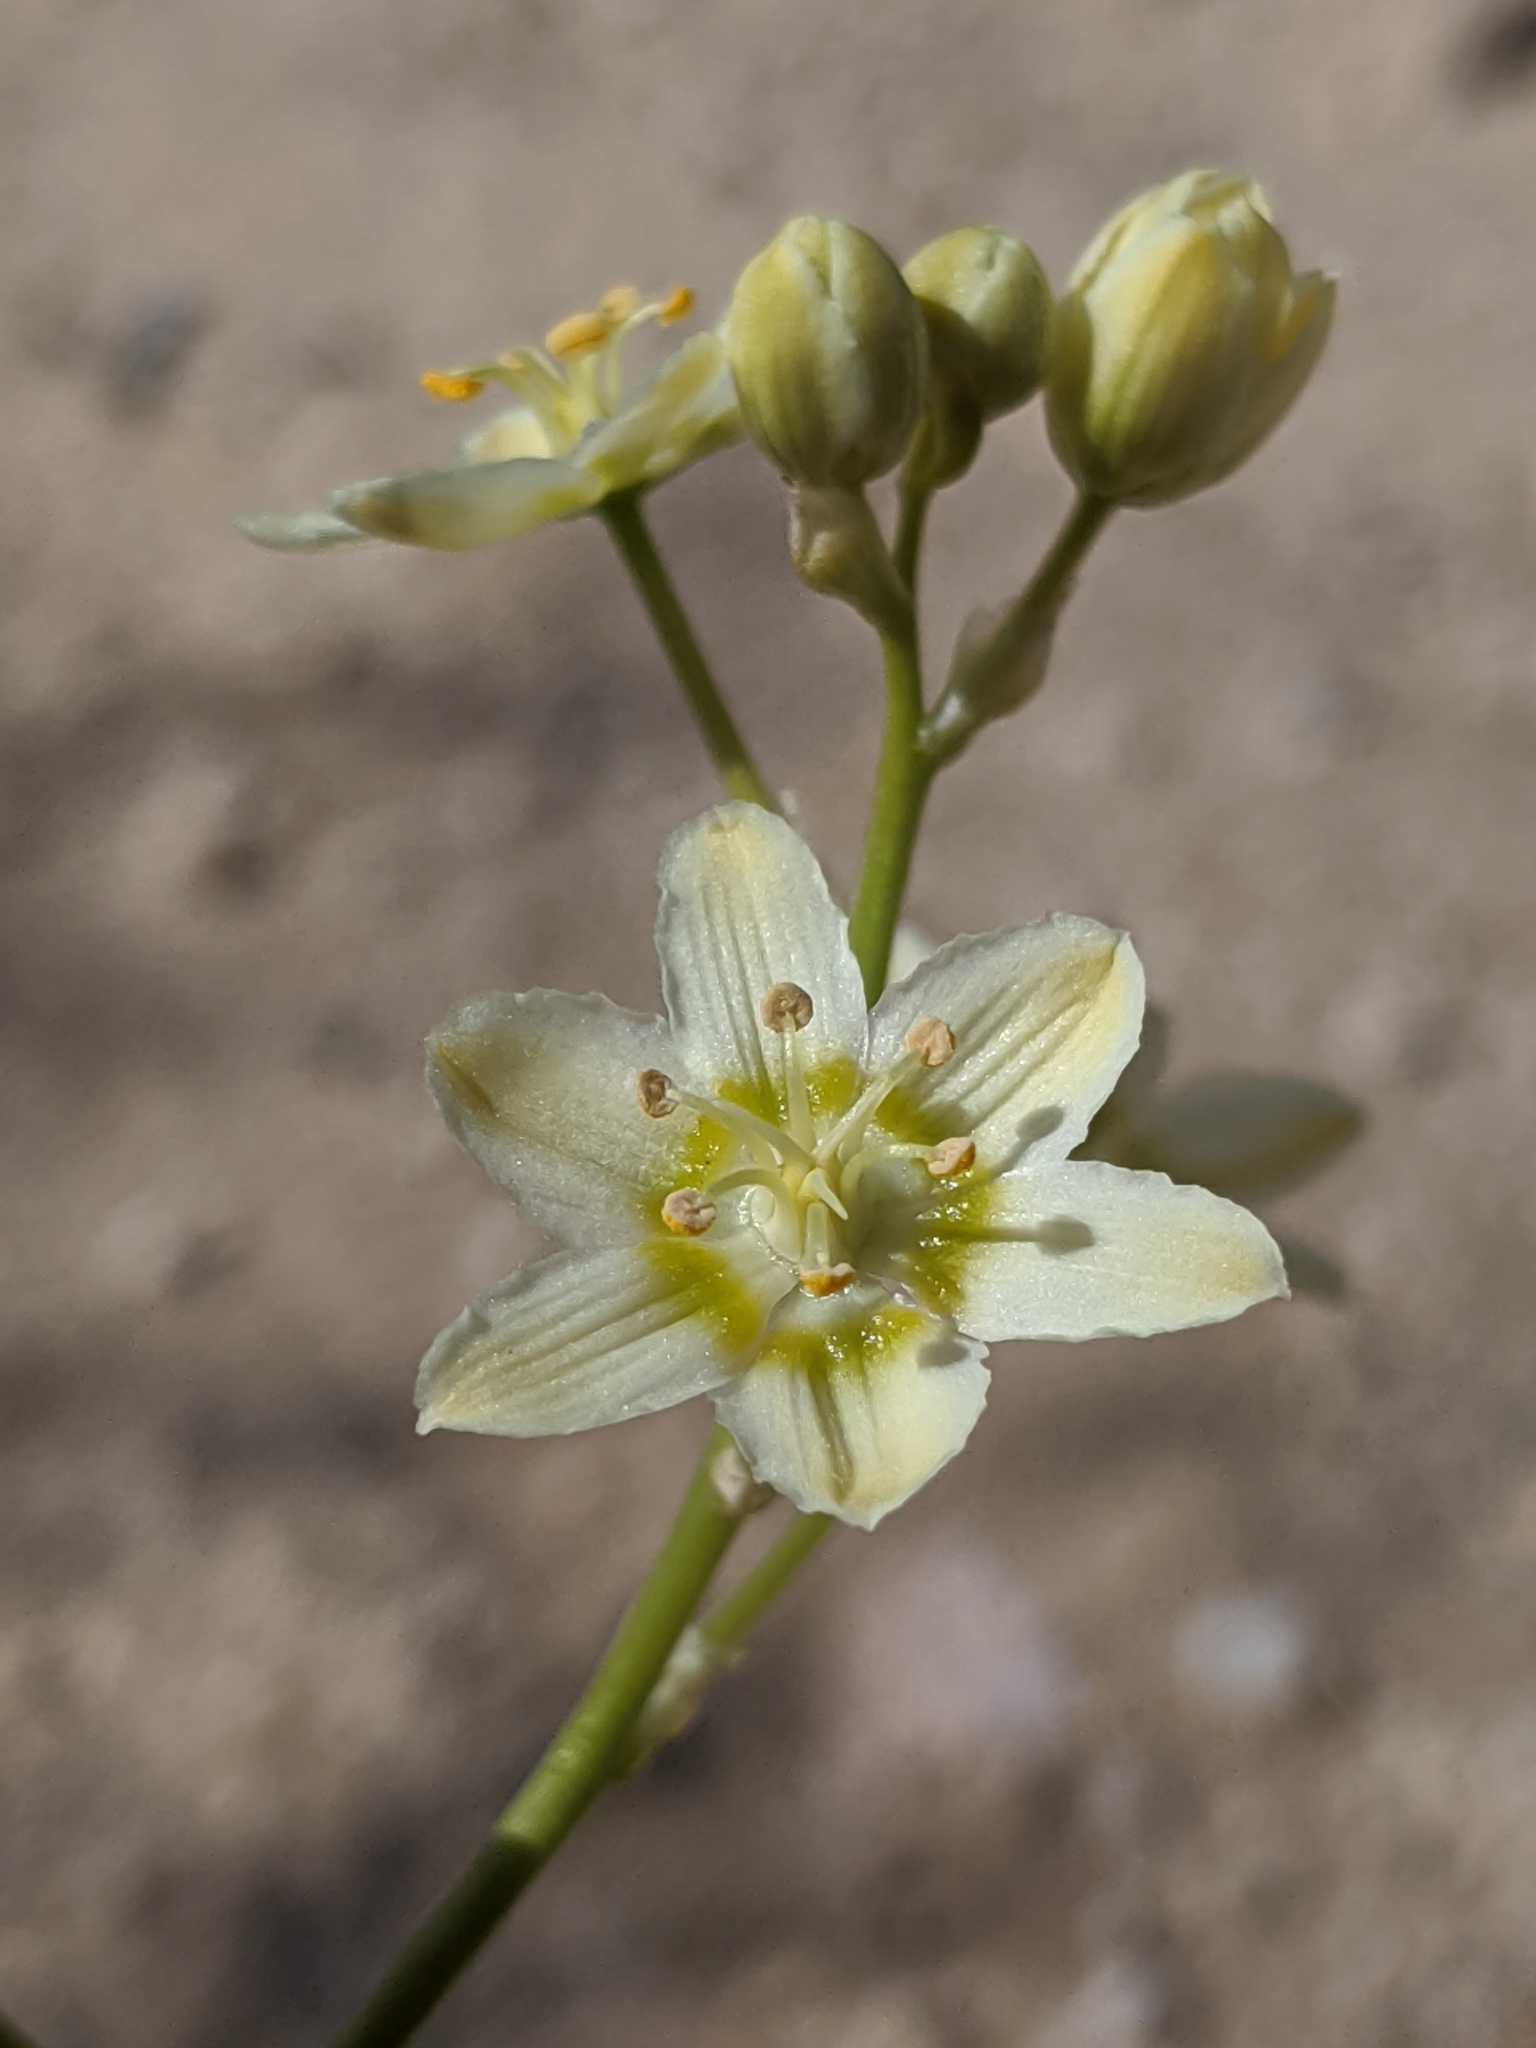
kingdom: Plantae
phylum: Tracheophyta
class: Liliopsida
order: Liliales
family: Melanthiaceae
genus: Toxicoscordion
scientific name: Toxicoscordion brevibracteatum
